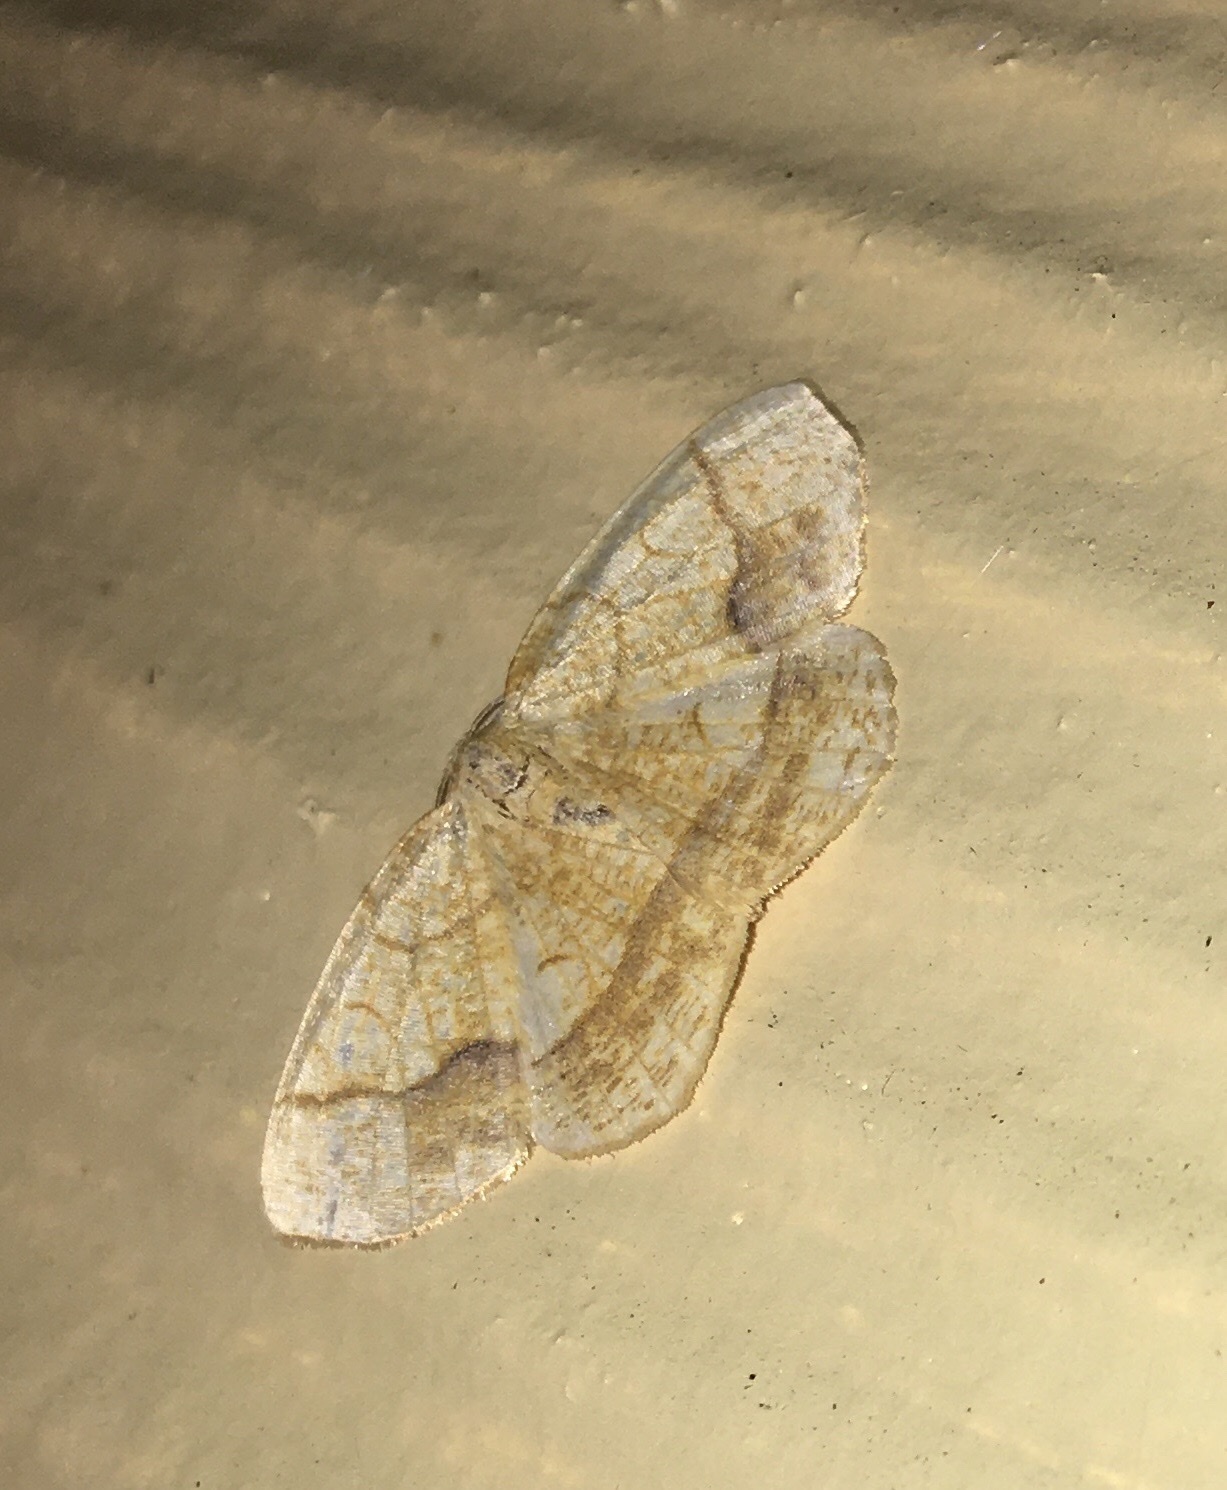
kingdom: Animalia
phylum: Arthropoda
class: Insecta
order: Lepidoptera
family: Geometridae
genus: Nematocampa
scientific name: Nematocampa resistaria
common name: Horned spanworm moth
